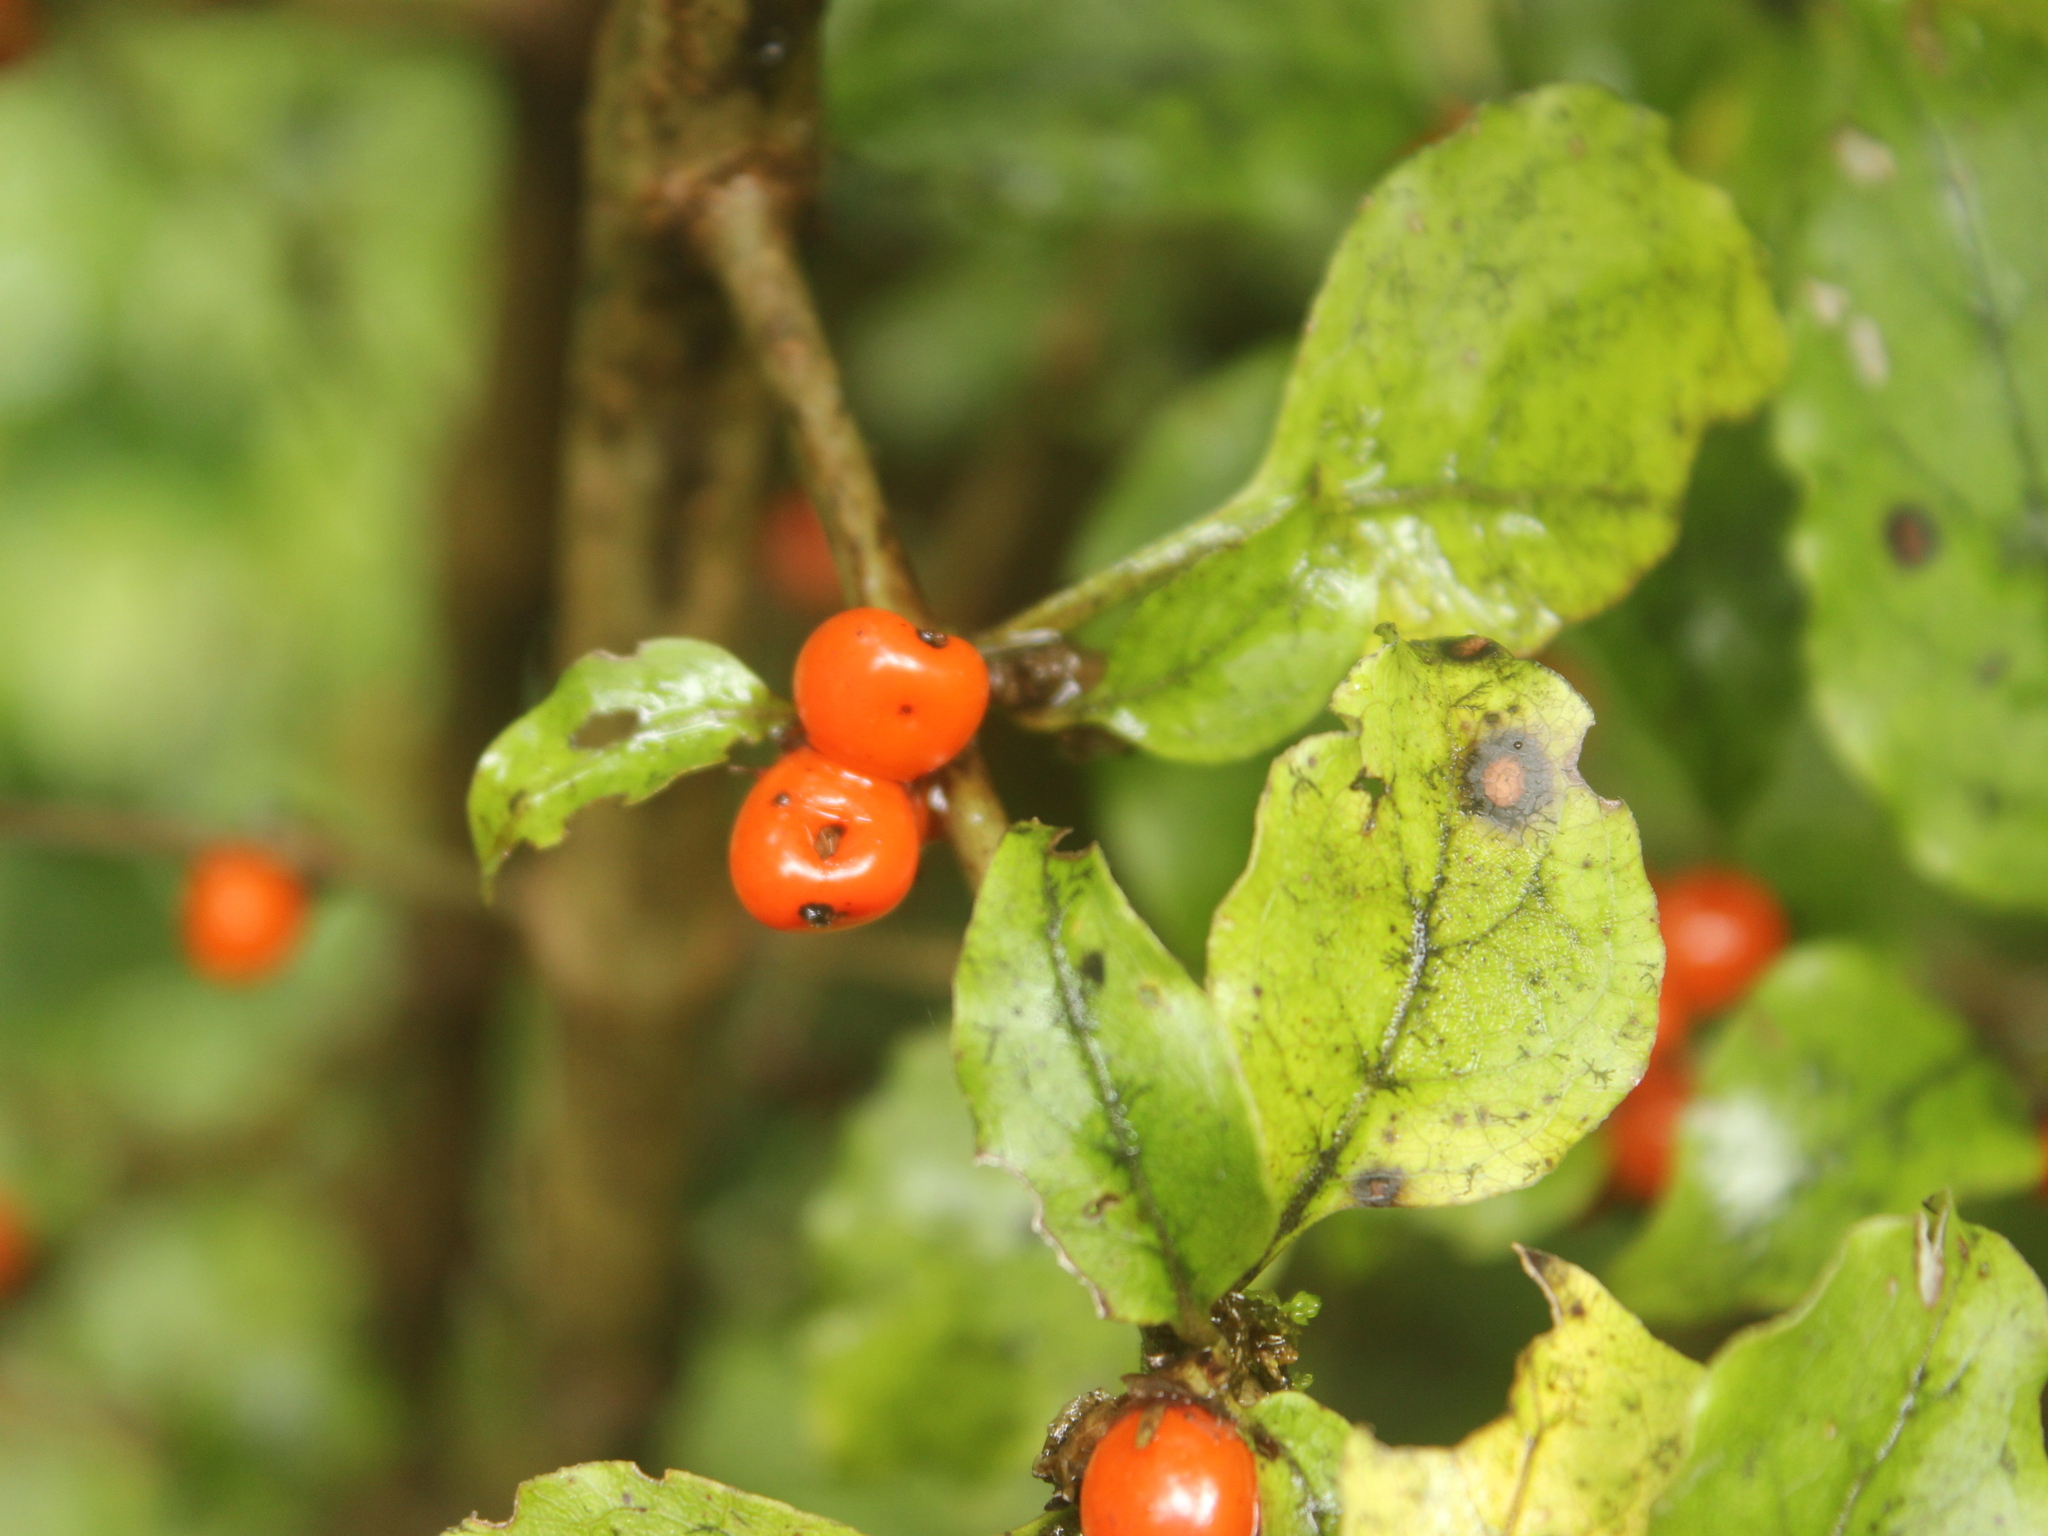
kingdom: Plantae
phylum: Tracheophyta
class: Magnoliopsida
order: Gentianales
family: Rubiaceae
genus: Coprosma
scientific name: Coprosma tenuifolia
